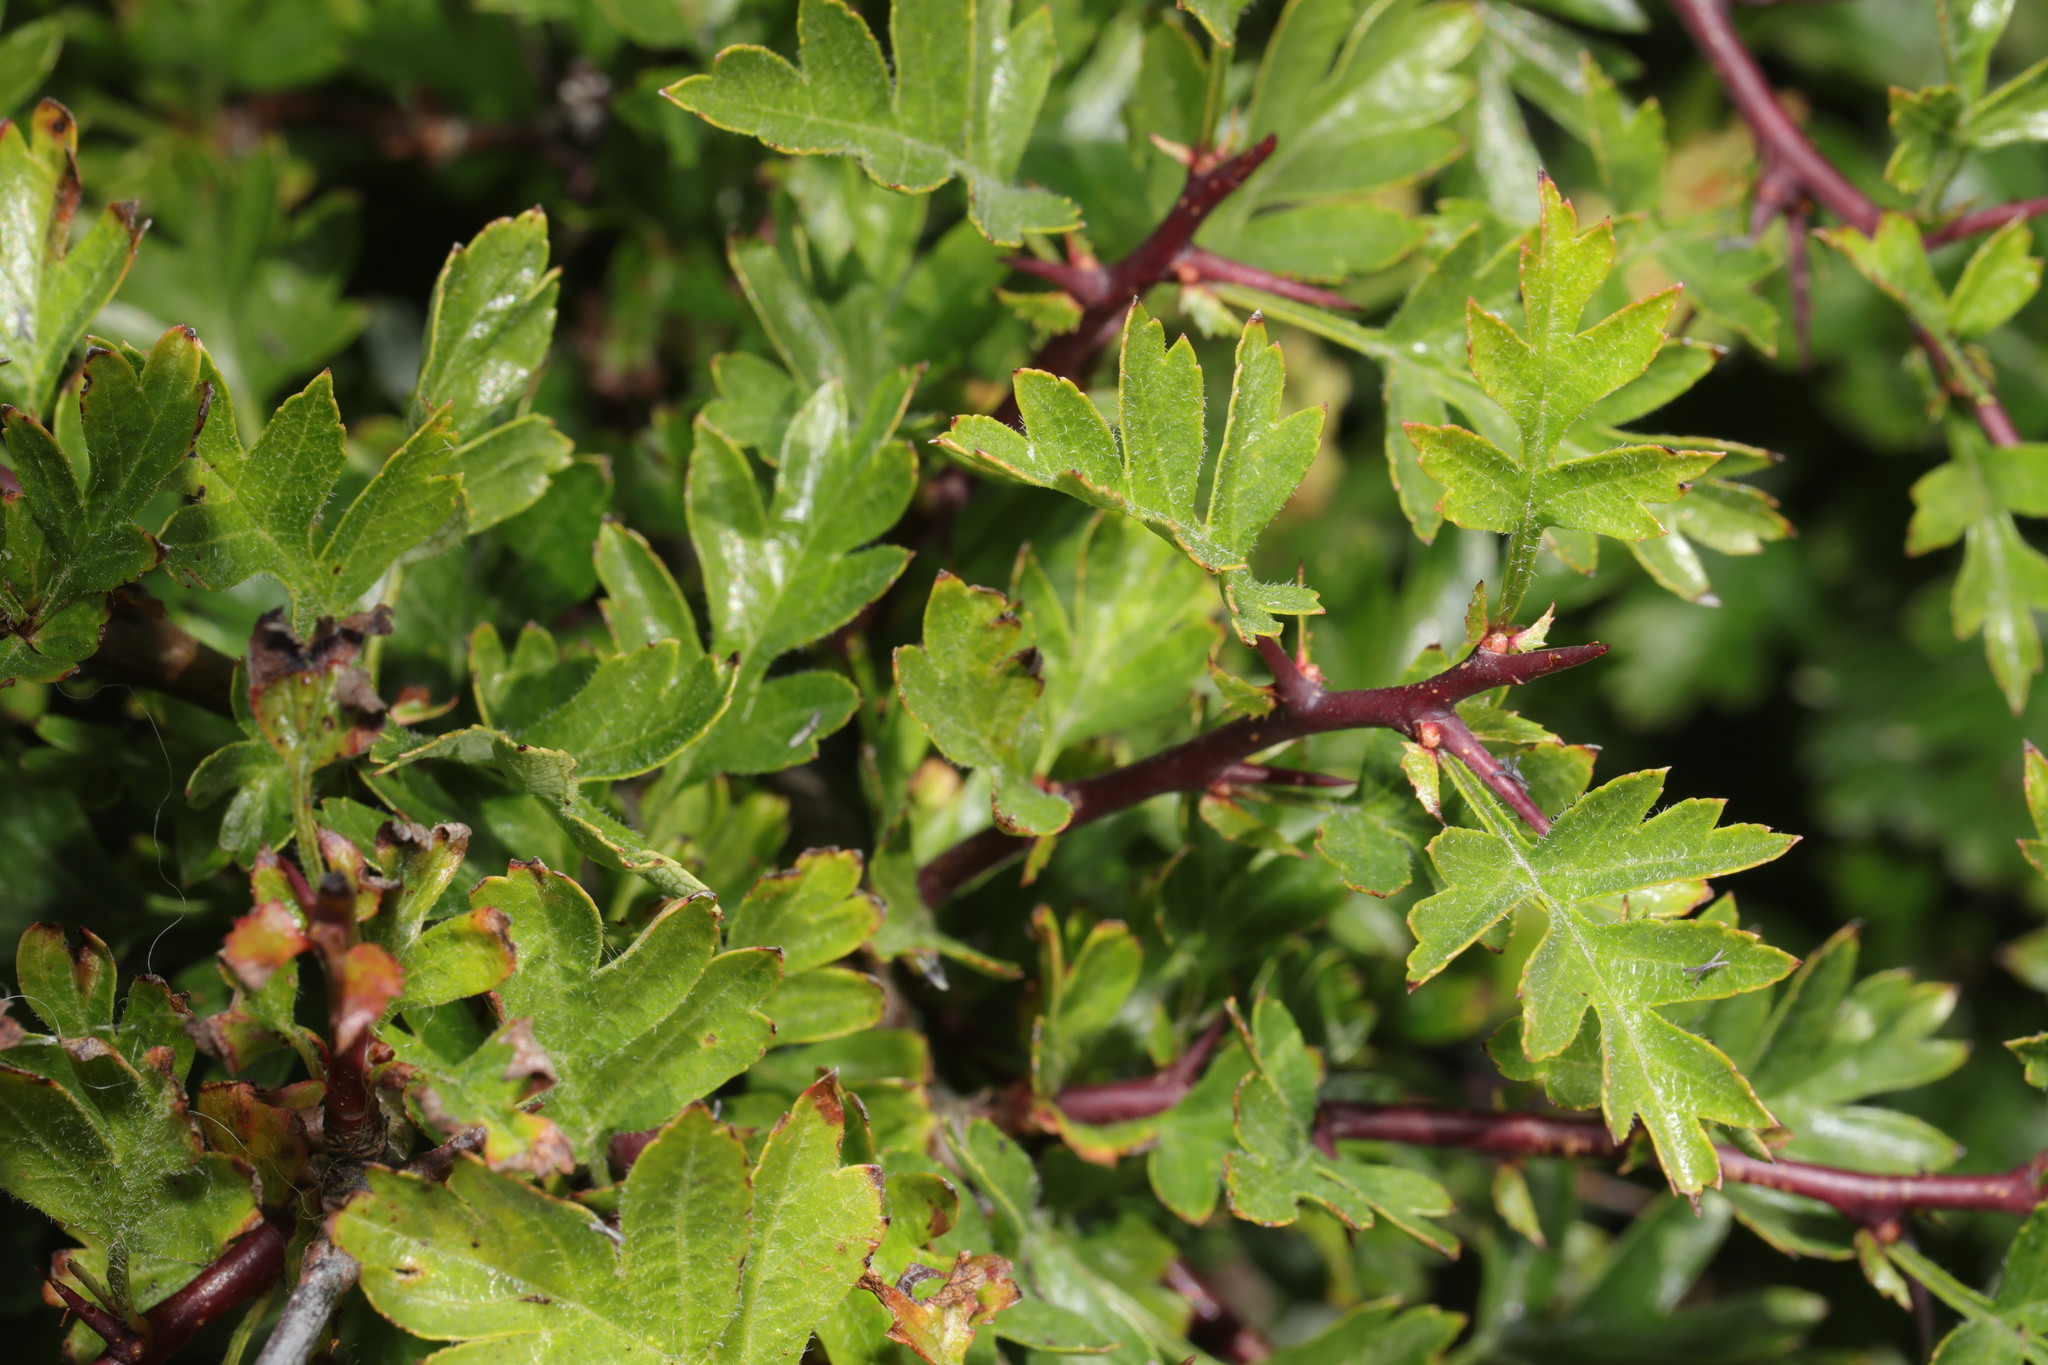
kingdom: Plantae
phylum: Tracheophyta
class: Magnoliopsida
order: Rosales
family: Rosaceae
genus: Crataegus
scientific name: Crataegus monogyna
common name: Hawthorn
